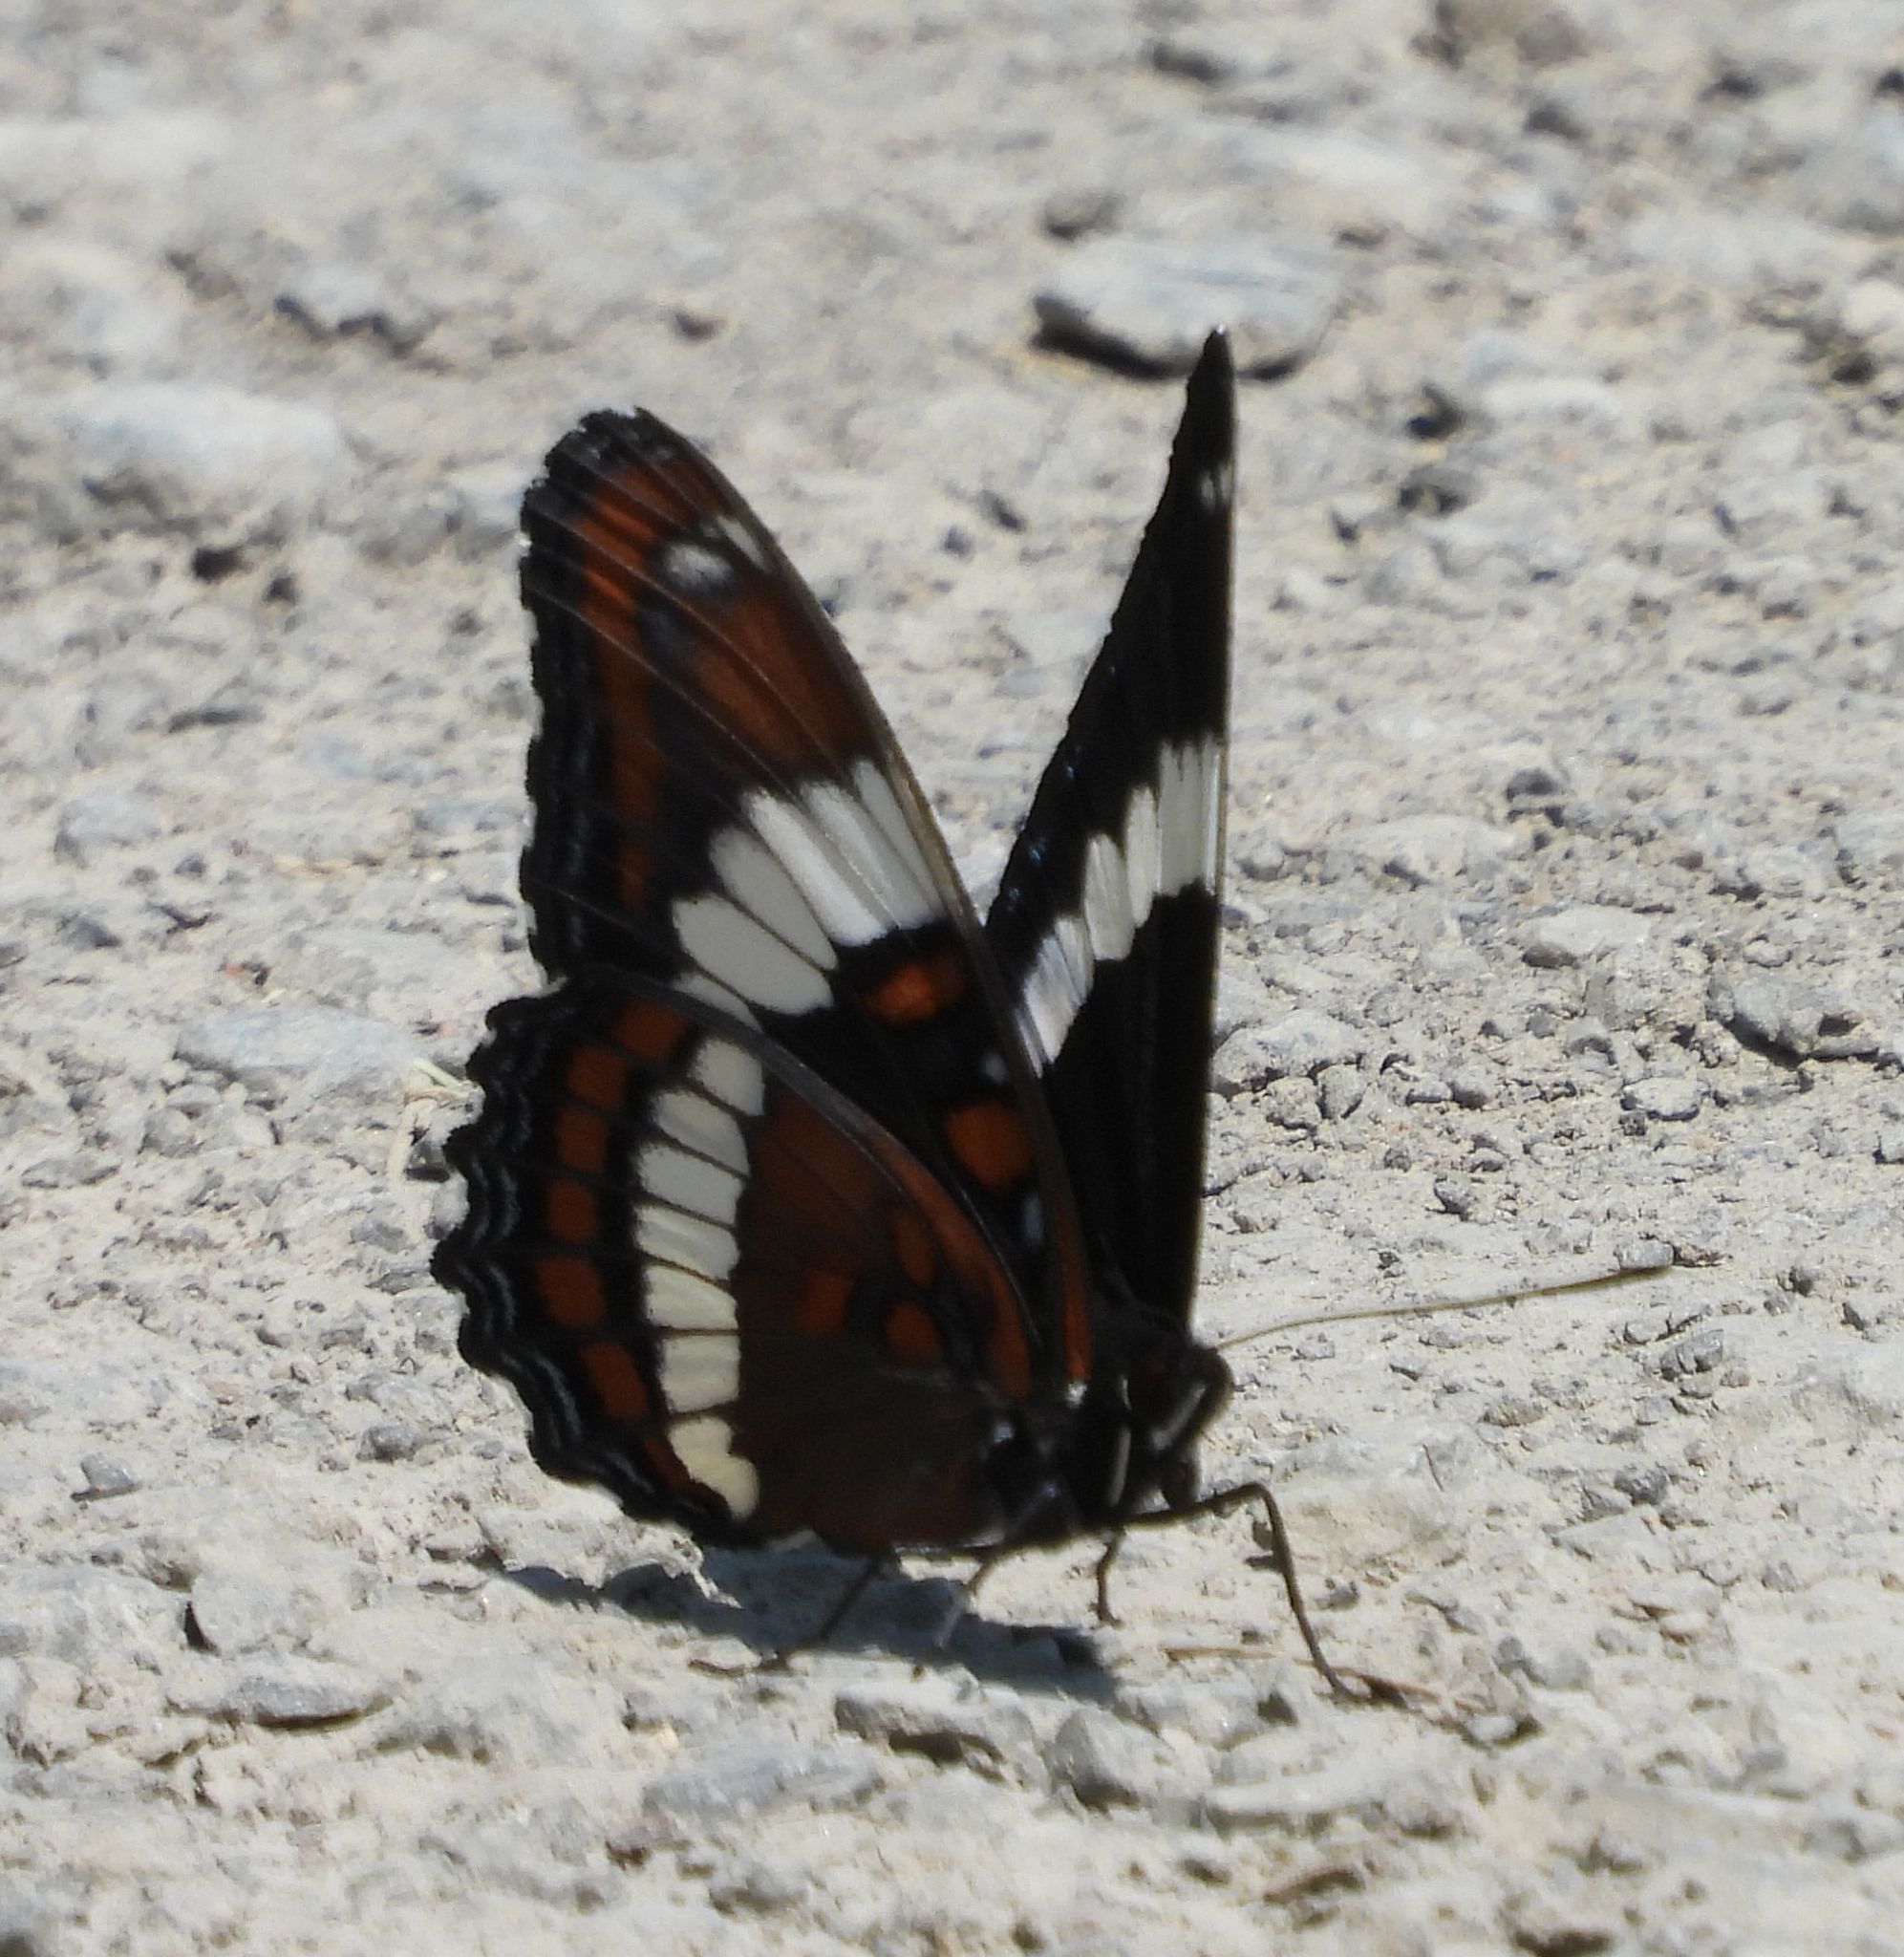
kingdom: Animalia
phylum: Arthropoda
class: Insecta
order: Lepidoptera
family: Nymphalidae
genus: Limenitis
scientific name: Limenitis arthemis
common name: Red-spotted admiral
